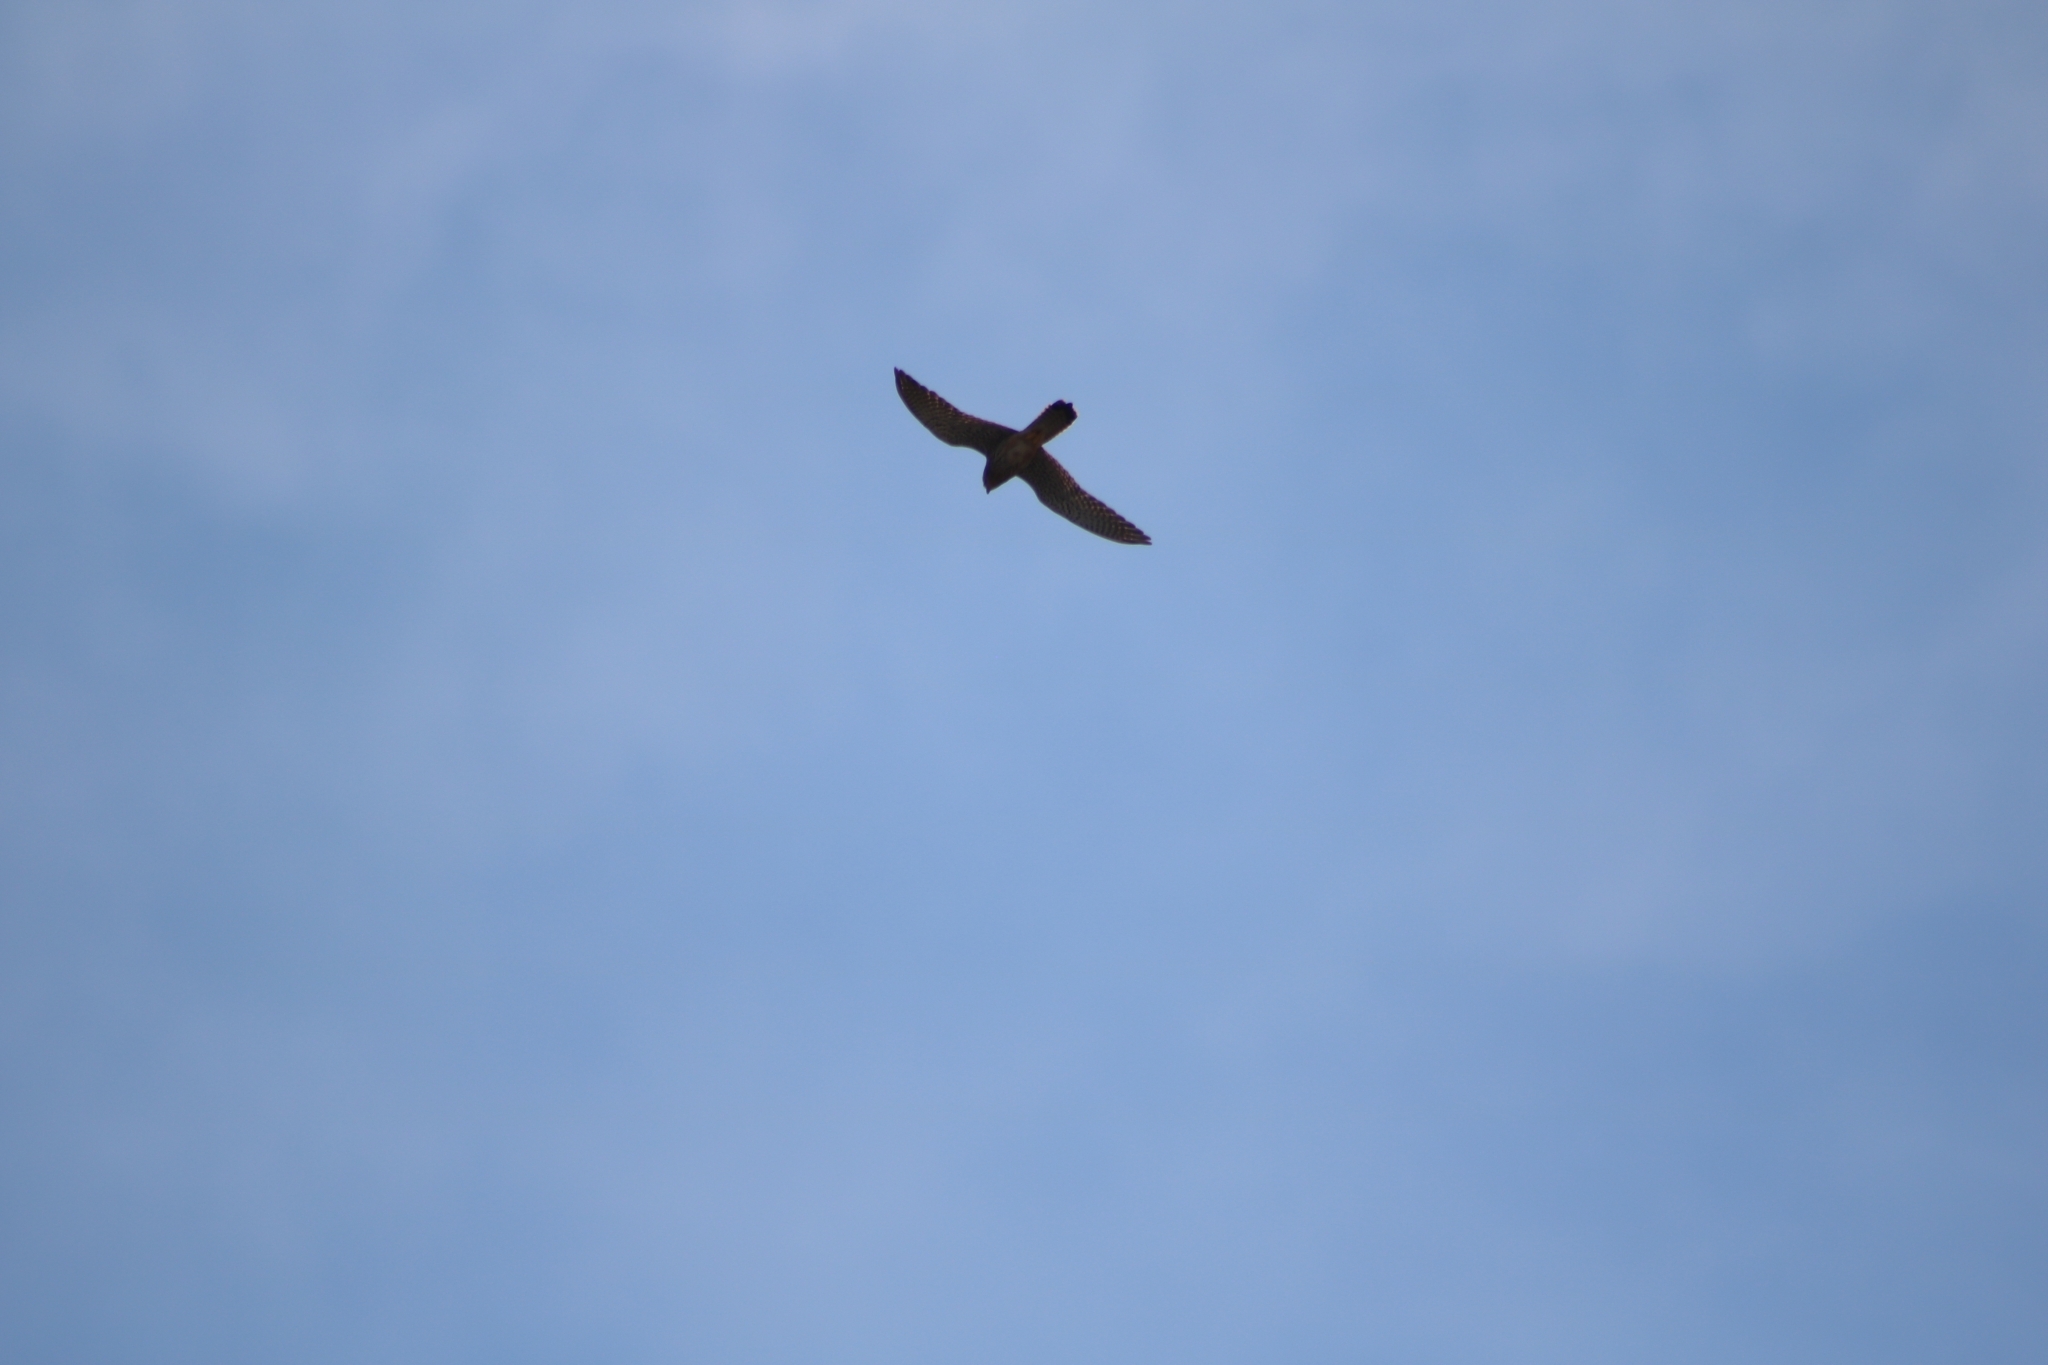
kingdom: Animalia
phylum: Chordata
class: Aves
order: Falconiformes
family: Falconidae
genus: Falco
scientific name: Falco tinnunculus
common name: Common kestrel
